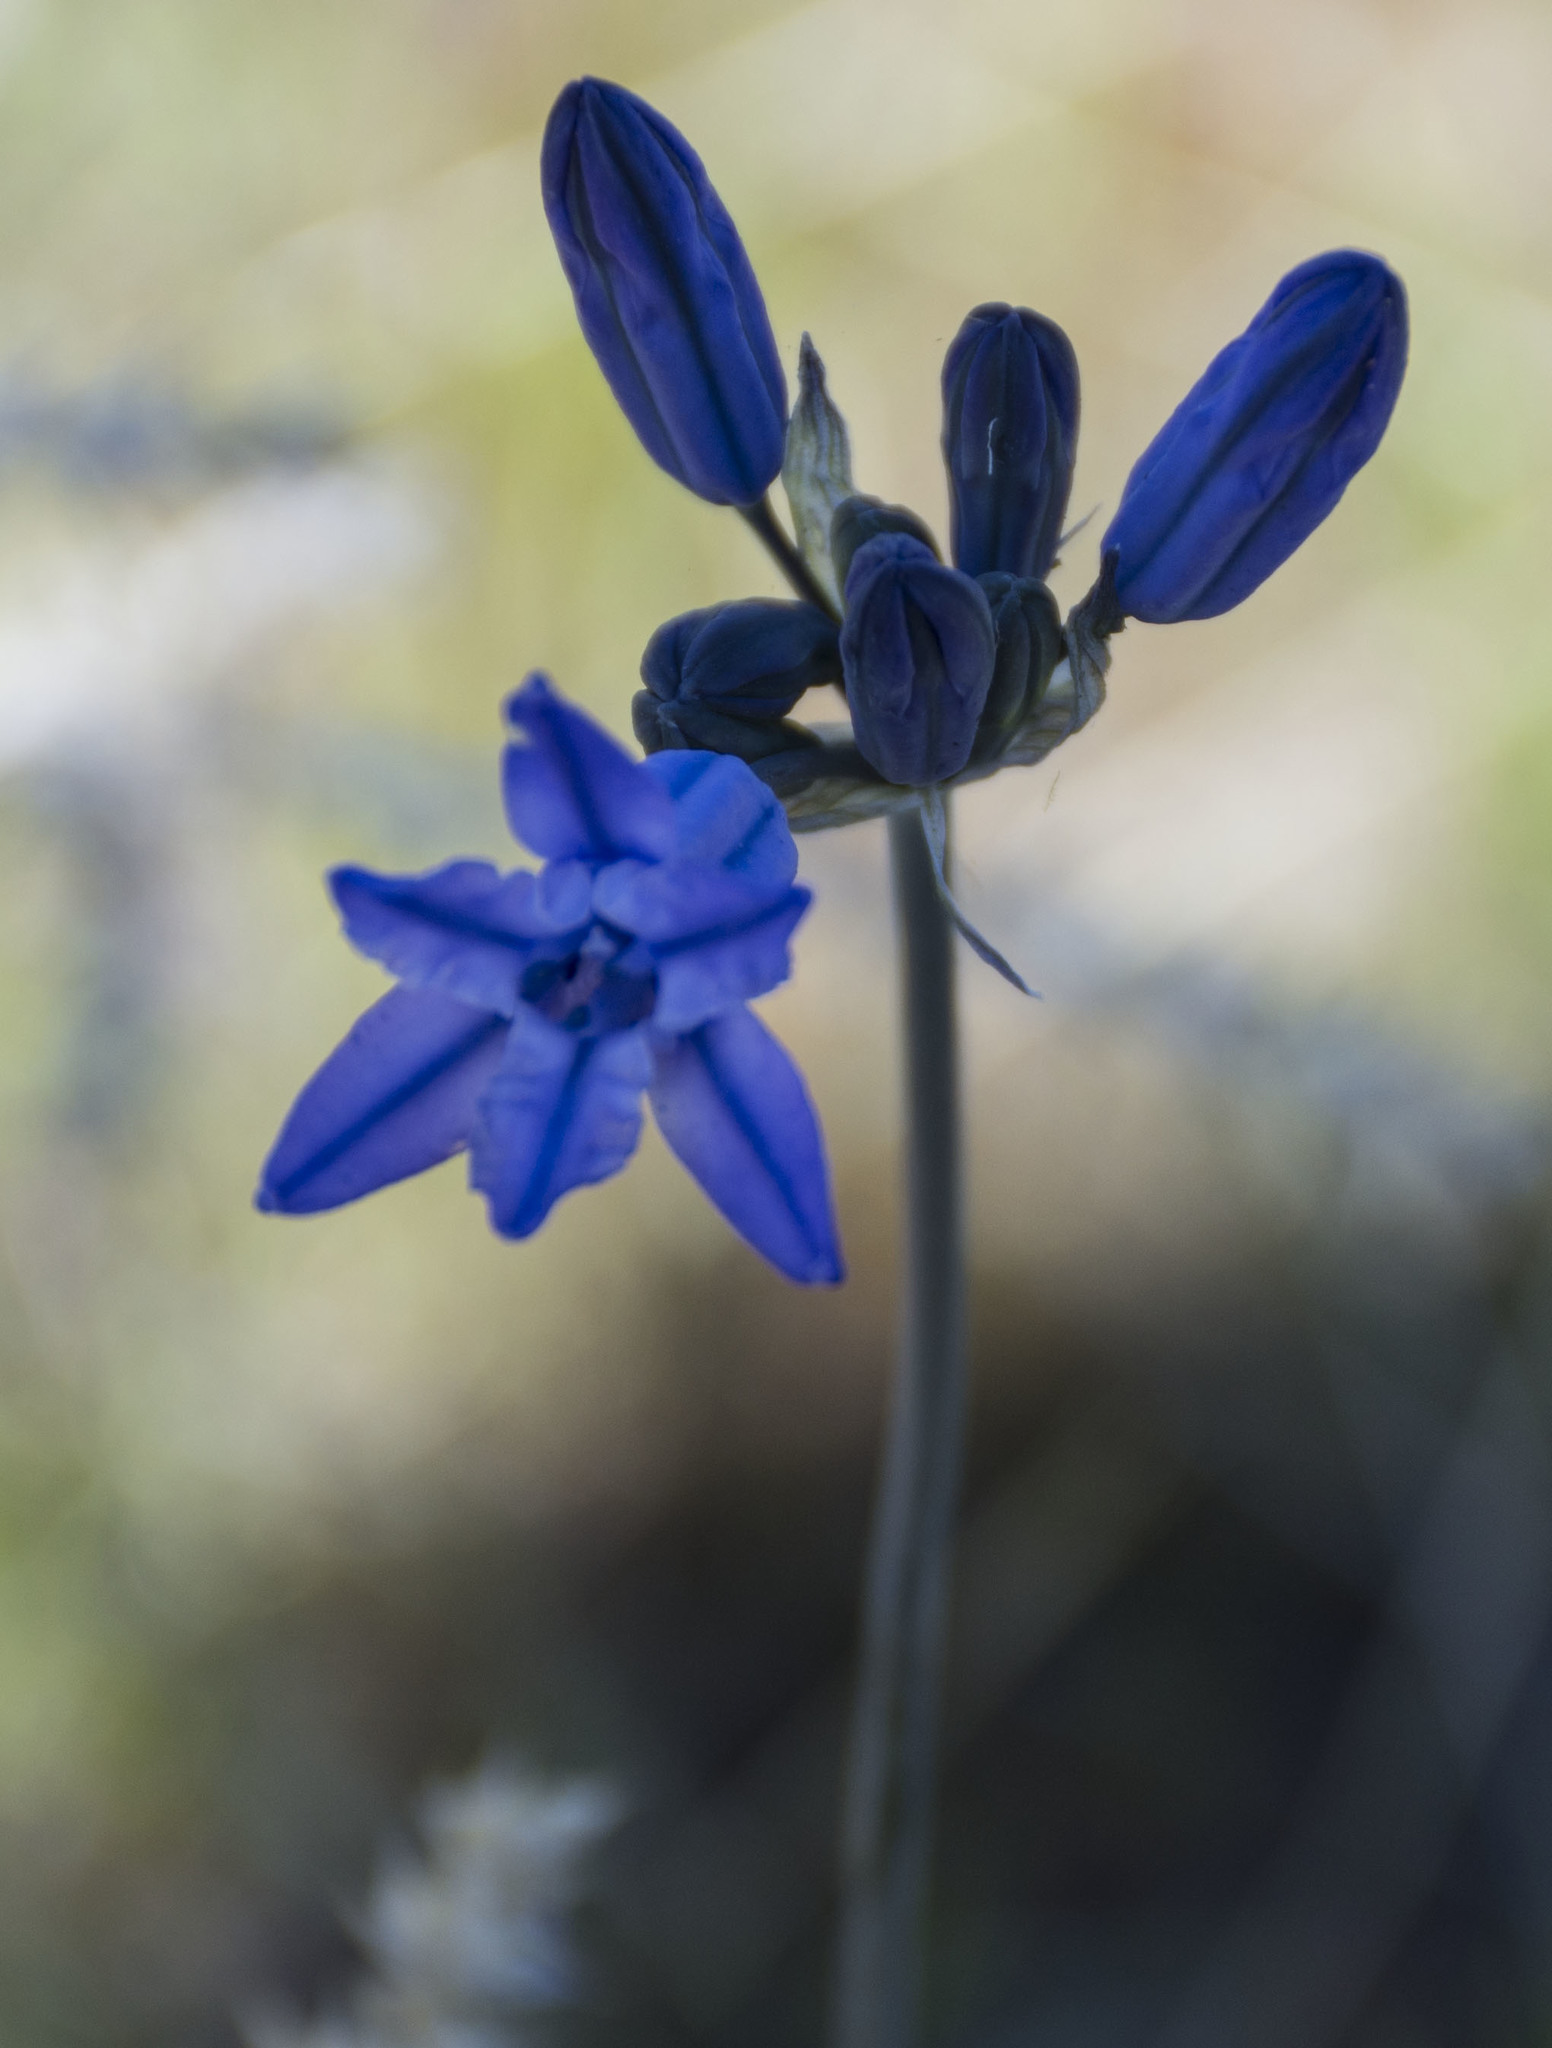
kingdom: Plantae
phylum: Tracheophyta
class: Liliopsida
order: Asparagales
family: Asparagaceae
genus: Triteleia
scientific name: Triteleia grandiflora
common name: Wild hyacinth
